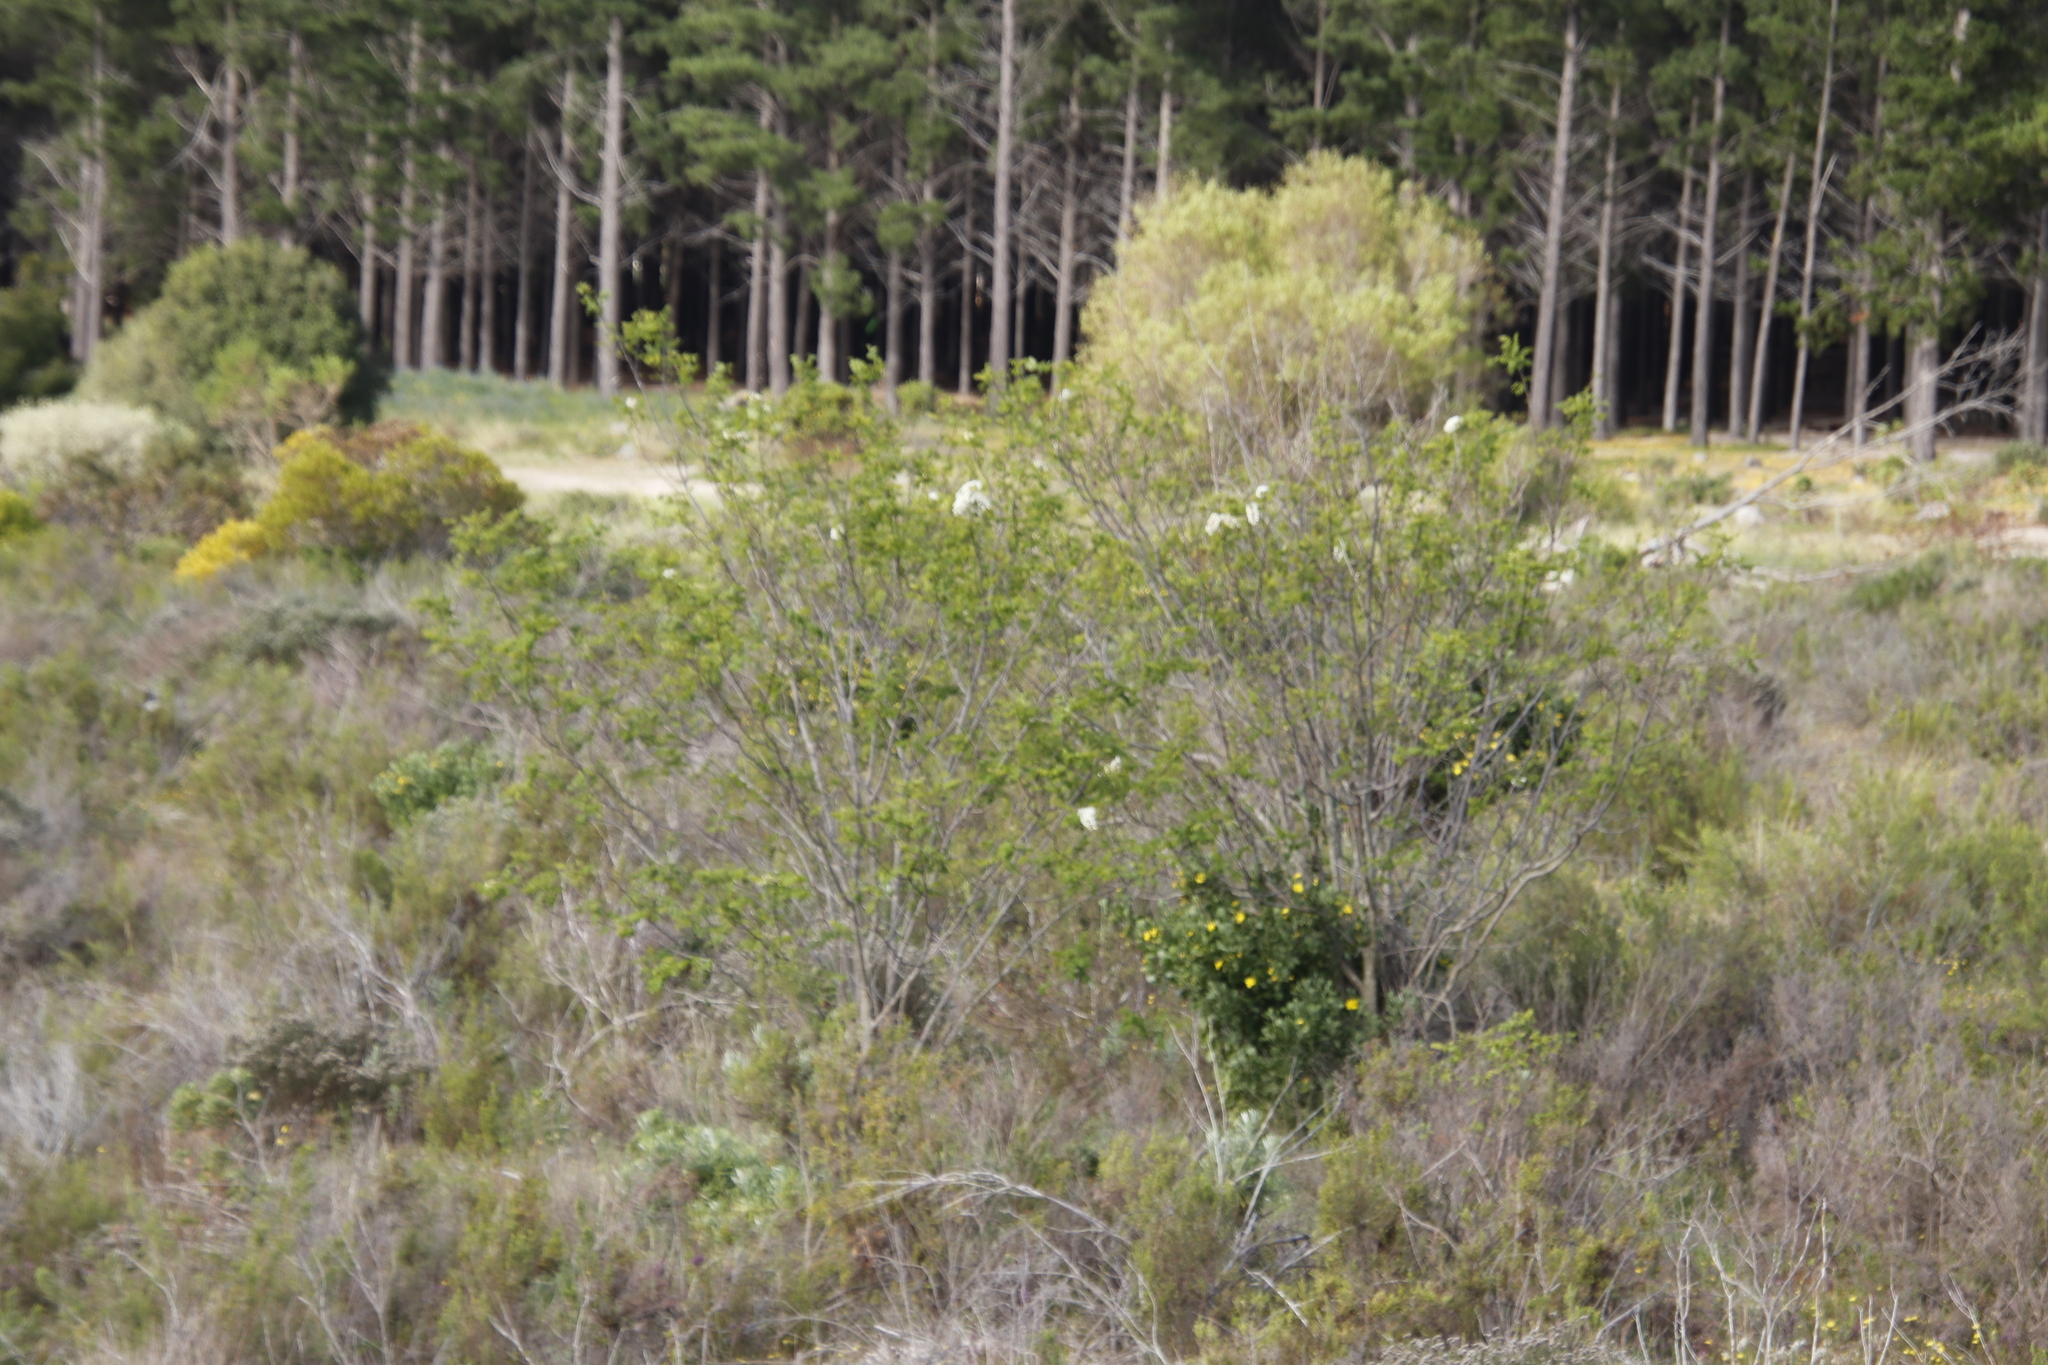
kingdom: Plantae
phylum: Tracheophyta
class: Magnoliopsida
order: Fabales
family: Fabaceae
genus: Robinia
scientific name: Robinia pseudoacacia
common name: Black locust
